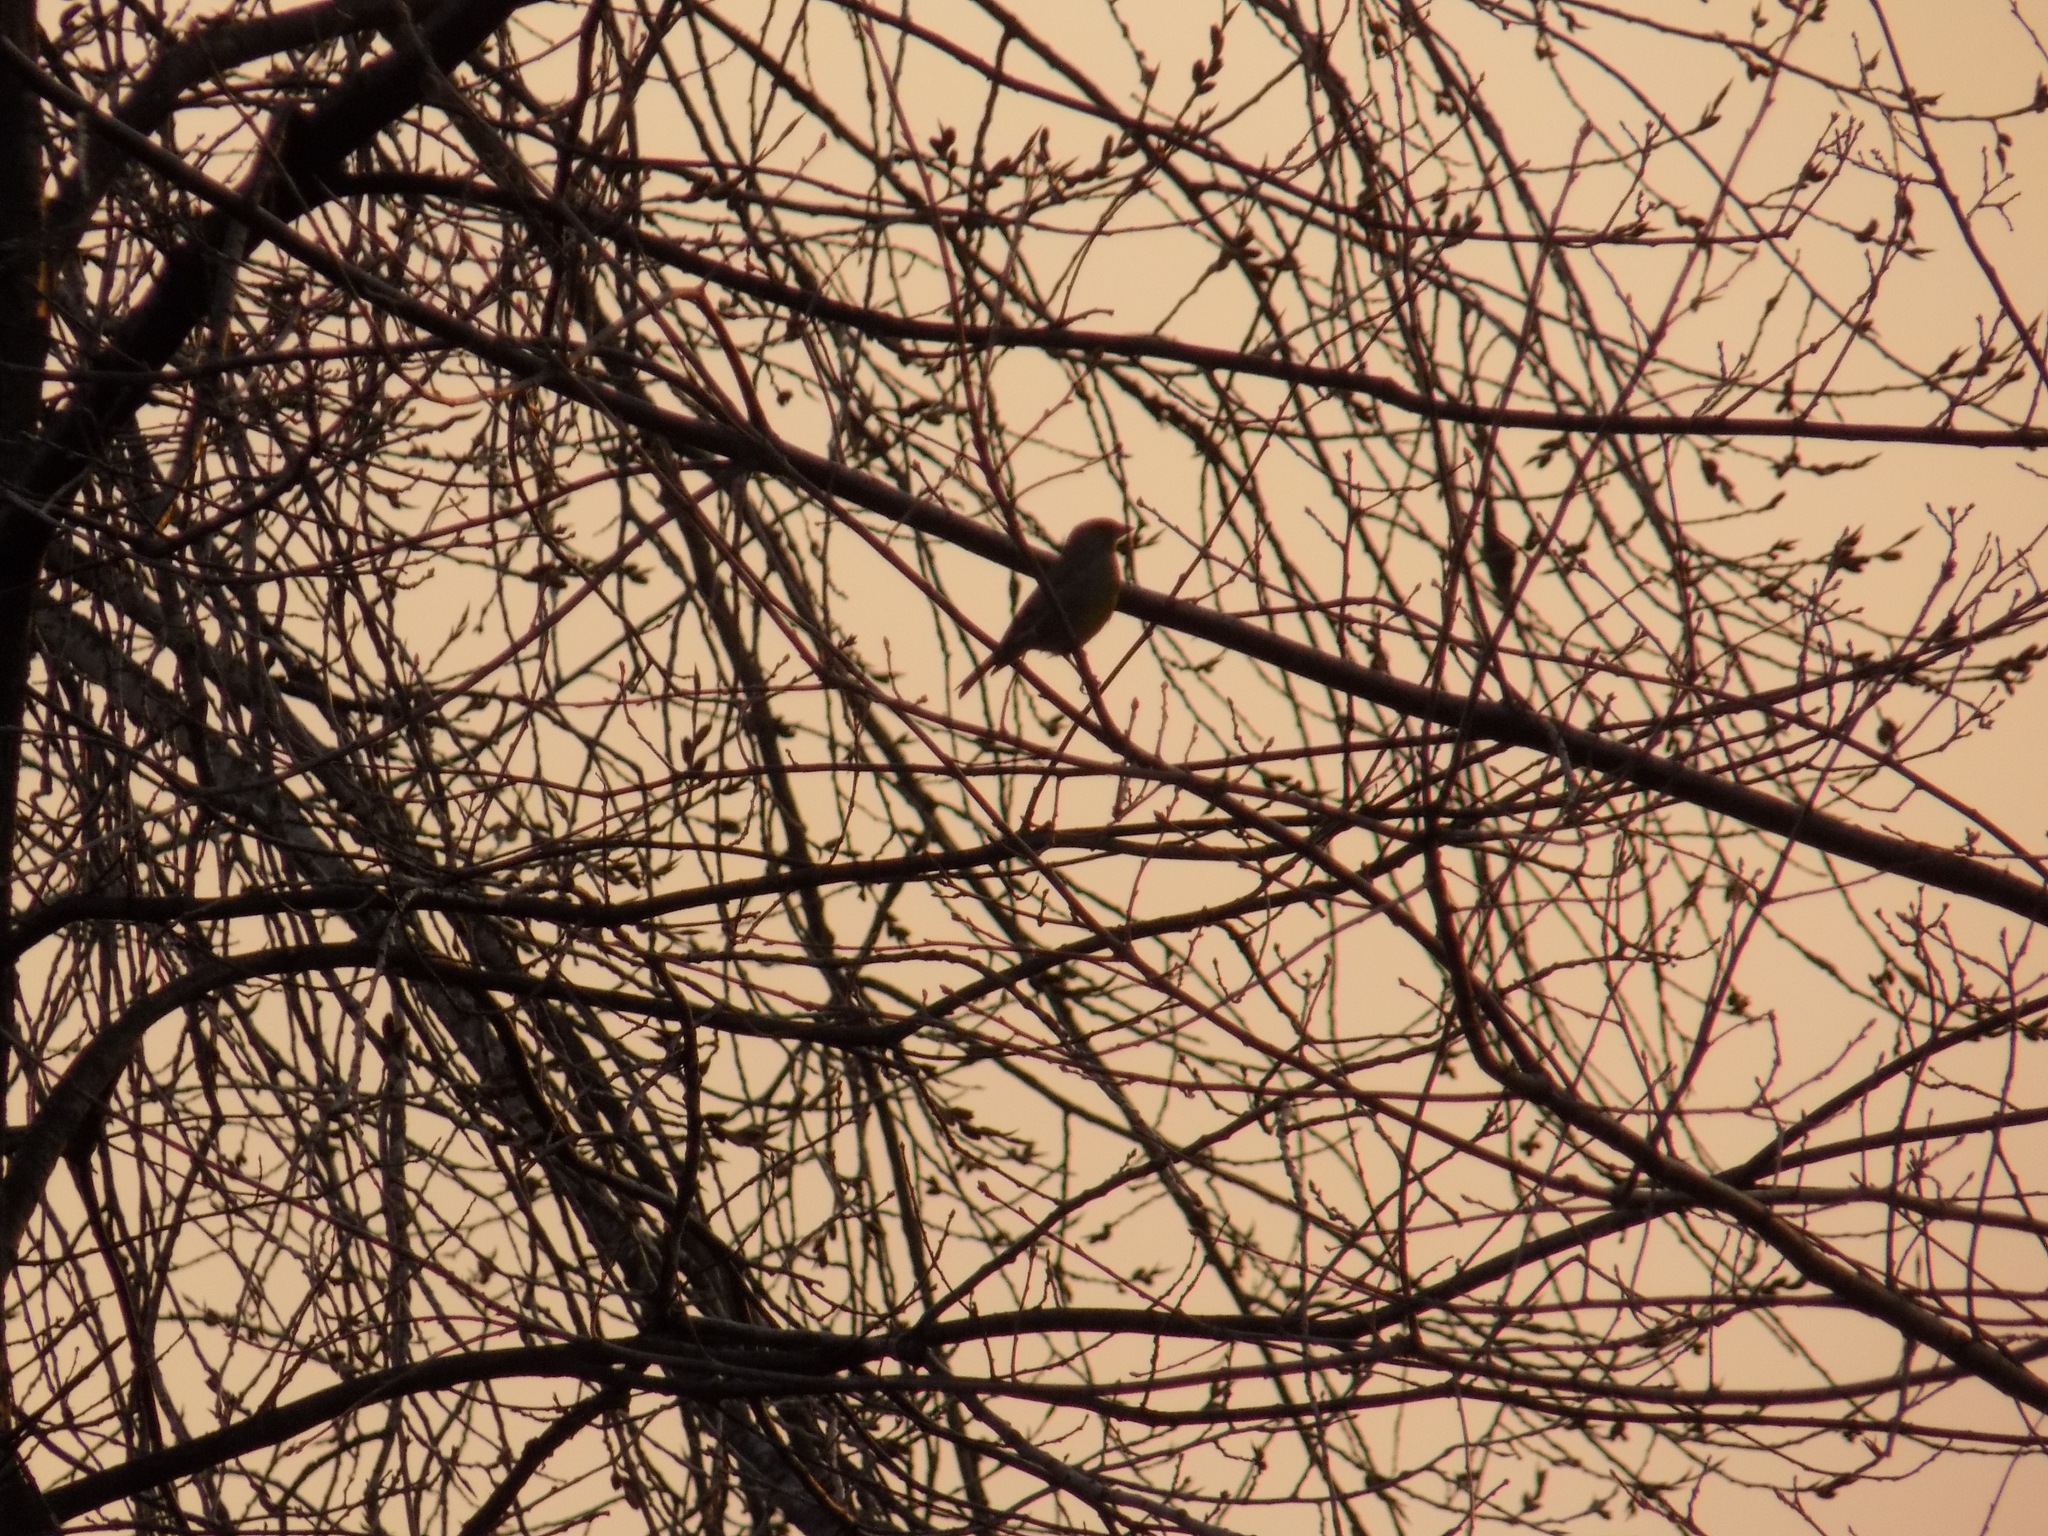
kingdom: Plantae
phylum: Tracheophyta
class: Liliopsida
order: Poales
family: Poaceae
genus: Chloris
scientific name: Chloris chloris
